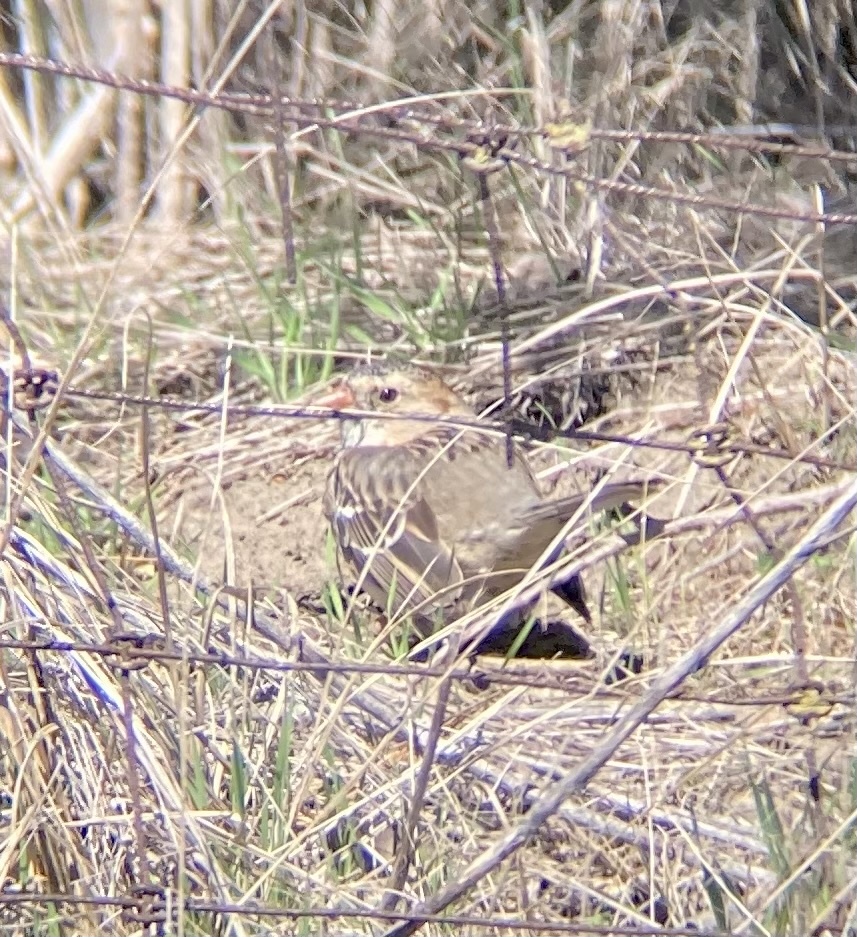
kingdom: Animalia
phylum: Chordata
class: Aves
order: Passeriformes
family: Passerellidae
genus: Zonotrichia
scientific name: Zonotrichia querula
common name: Harris's sparrow
